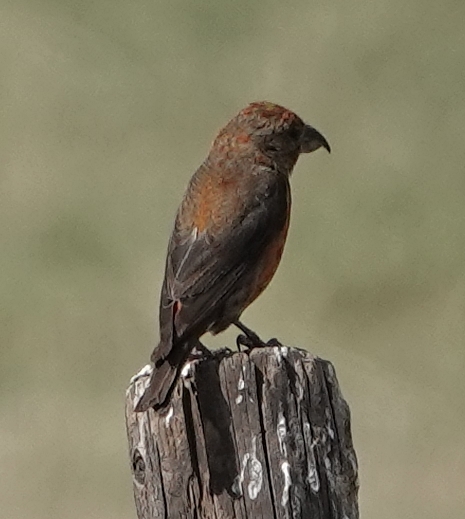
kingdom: Animalia
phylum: Chordata
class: Aves
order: Passeriformes
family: Fringillidae
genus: Loxia
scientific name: Loxia curvirostra
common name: Red crossbill
